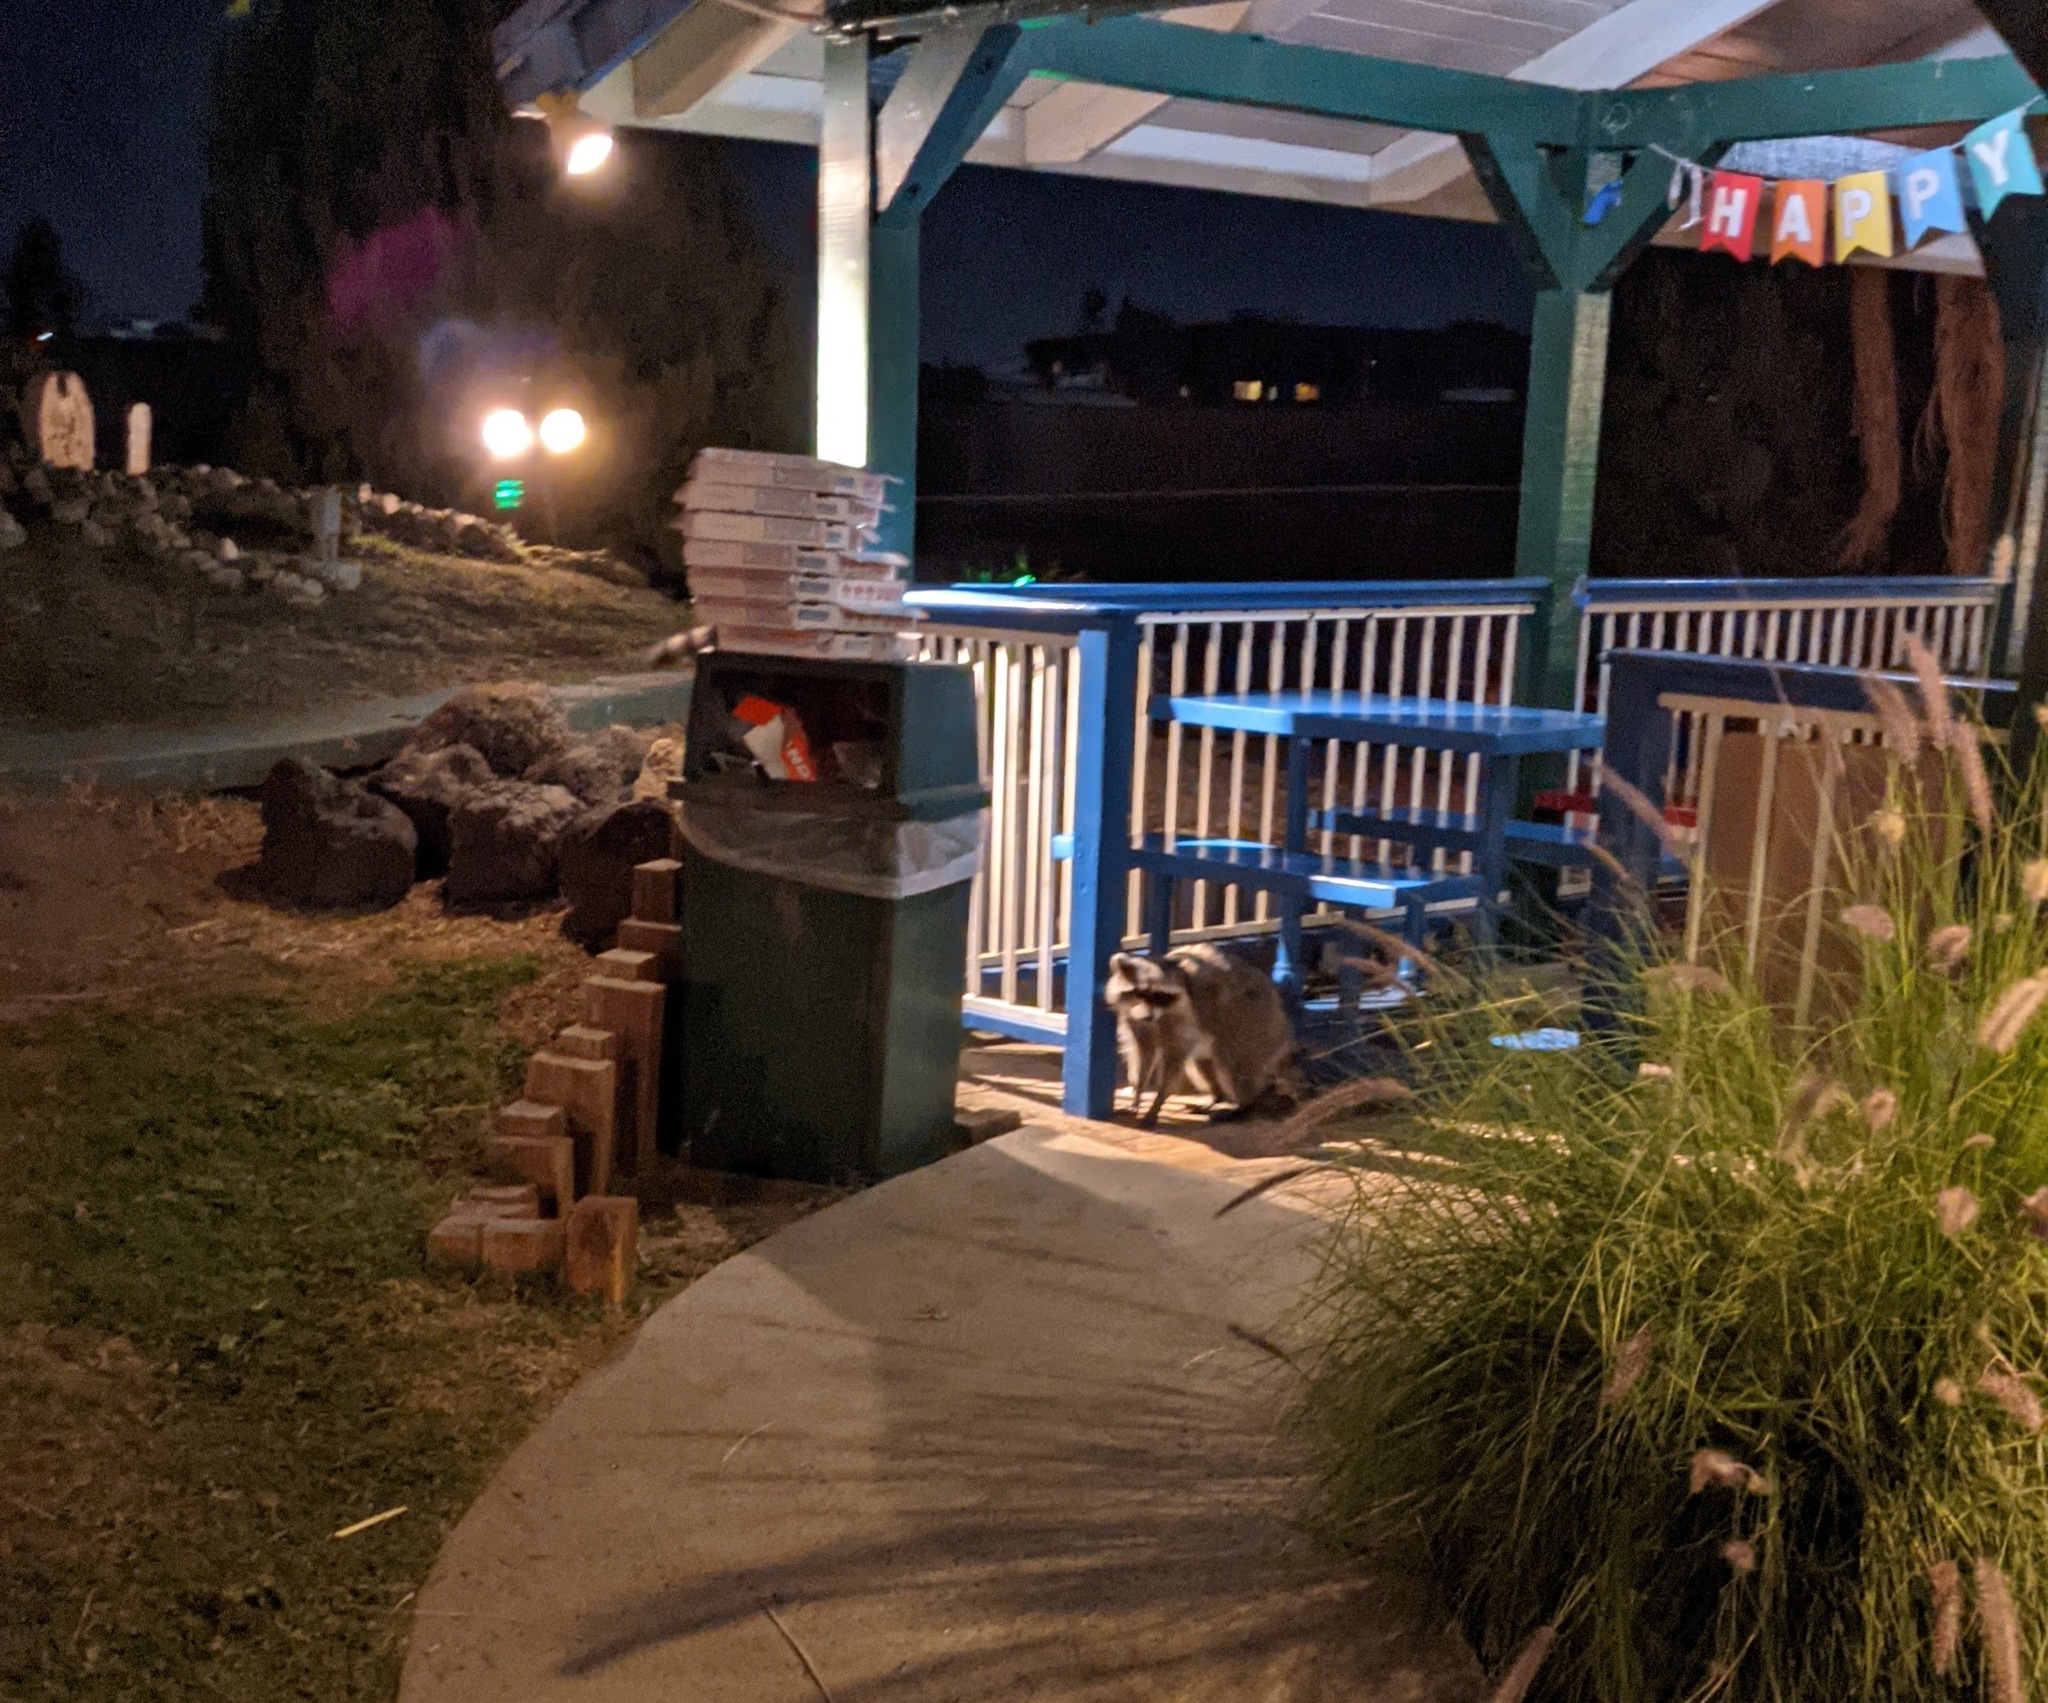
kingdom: Animalia
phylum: Chordata
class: Mammalia
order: Carnivora
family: Procyonidae
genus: Procyon
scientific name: Procyon lotor
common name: Raccoon
